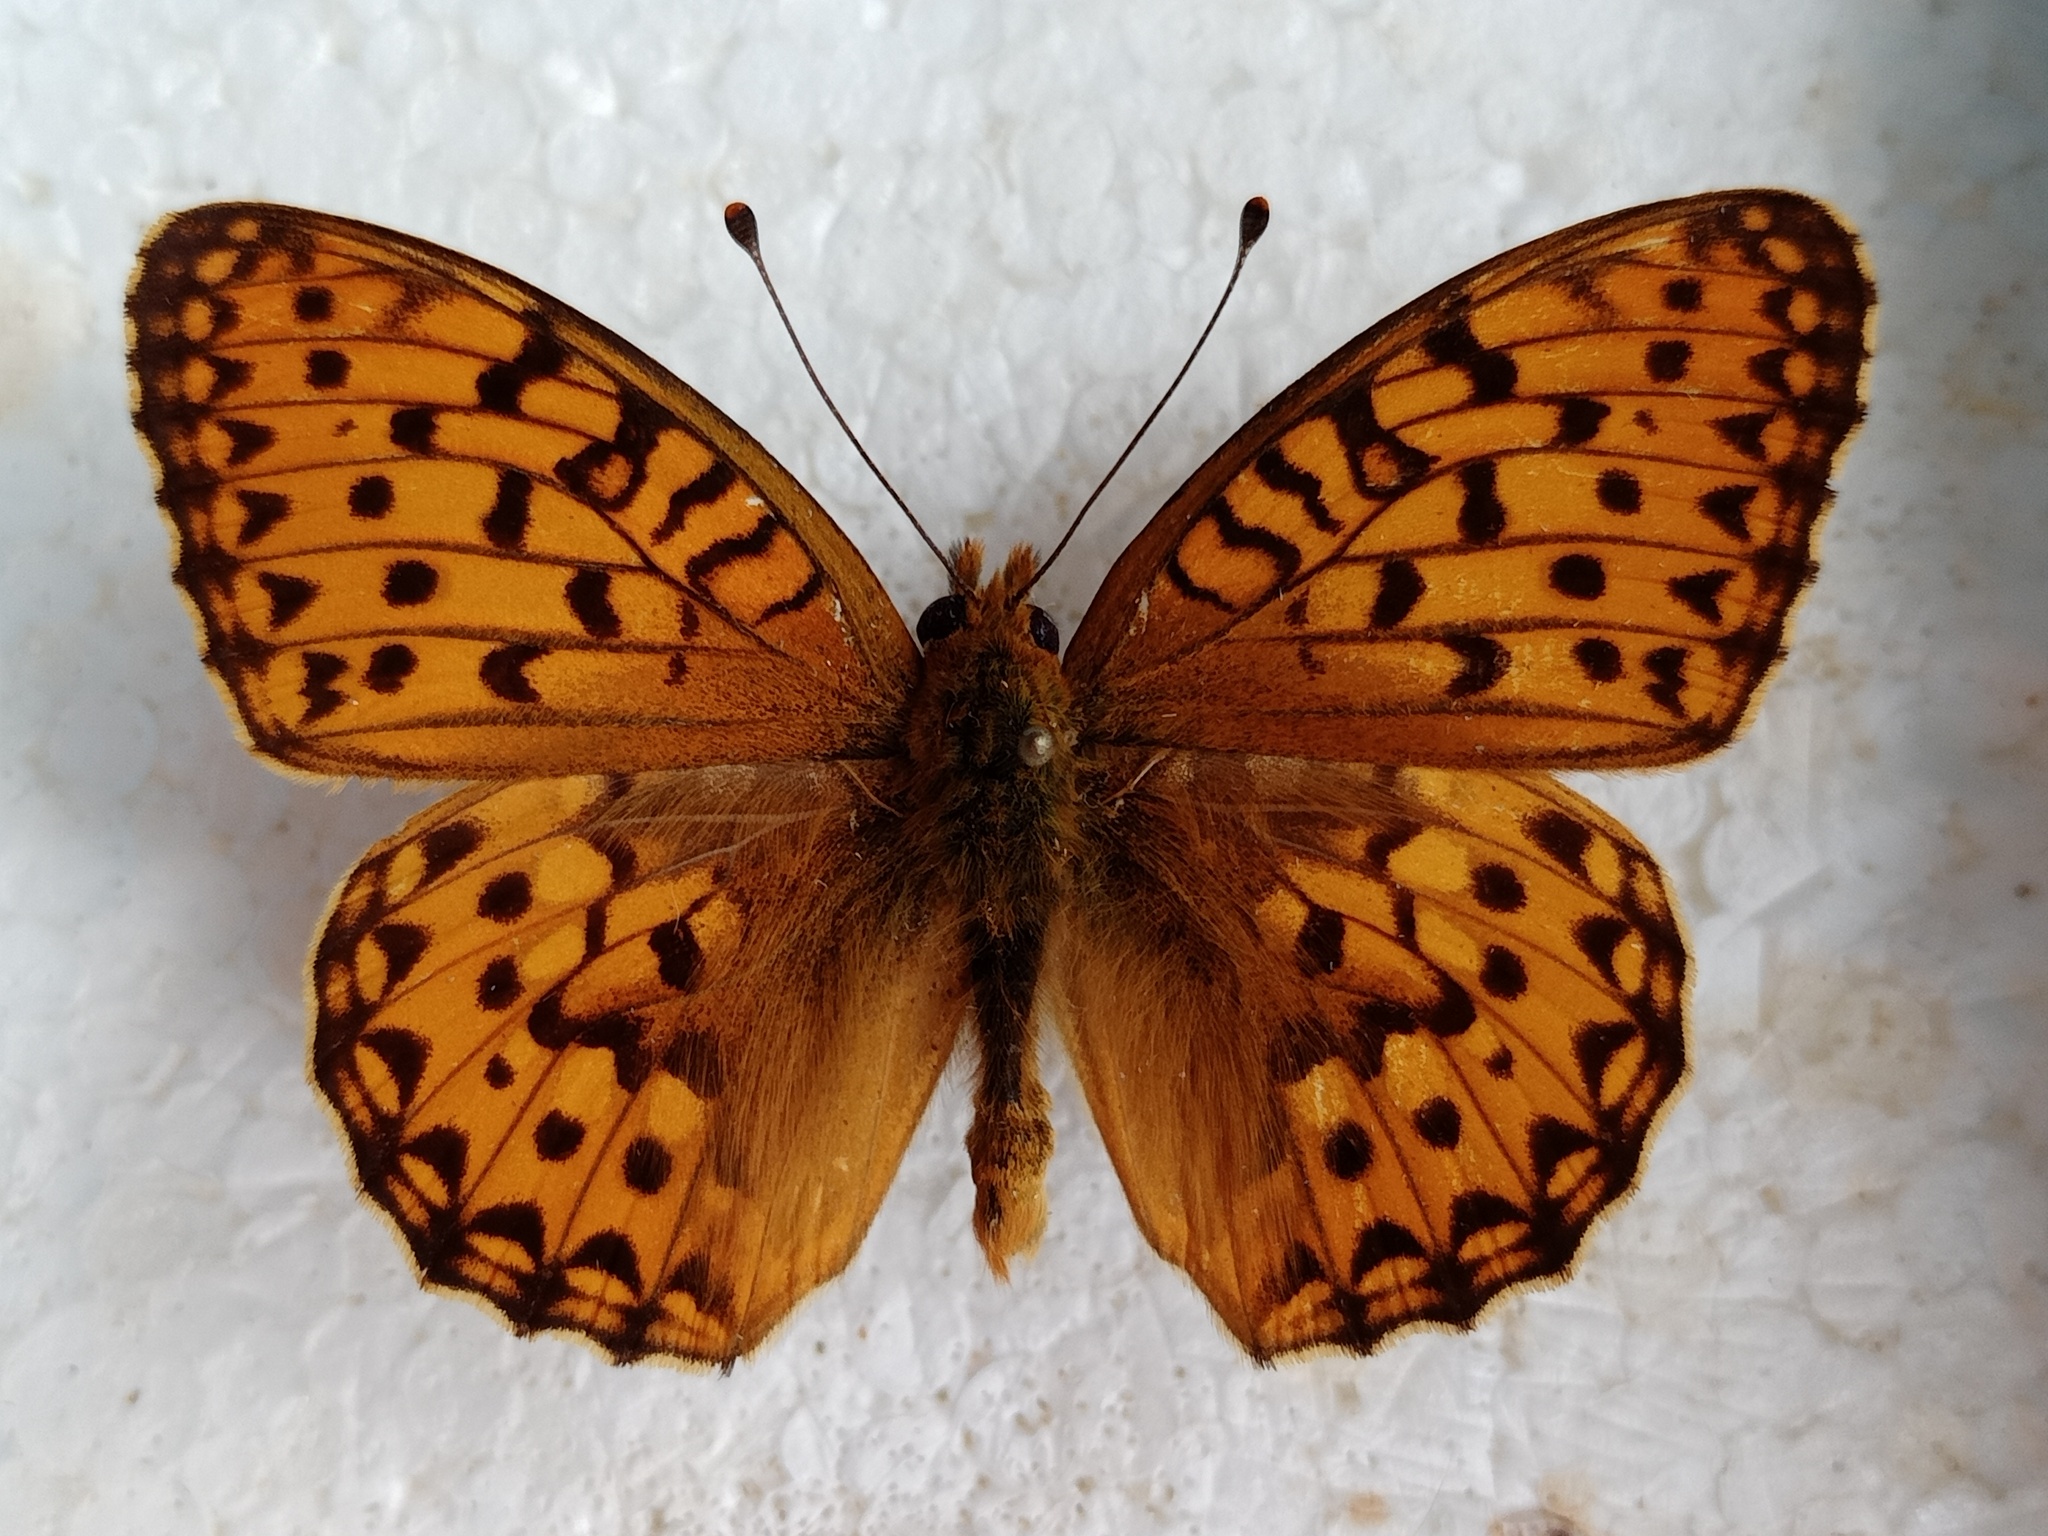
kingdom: Animalia
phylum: Arthropoda
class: Insecta
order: Lepidoptera
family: Nymphalidae
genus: Speyeria
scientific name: Speyeria aglaja
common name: Dark green fritillary
